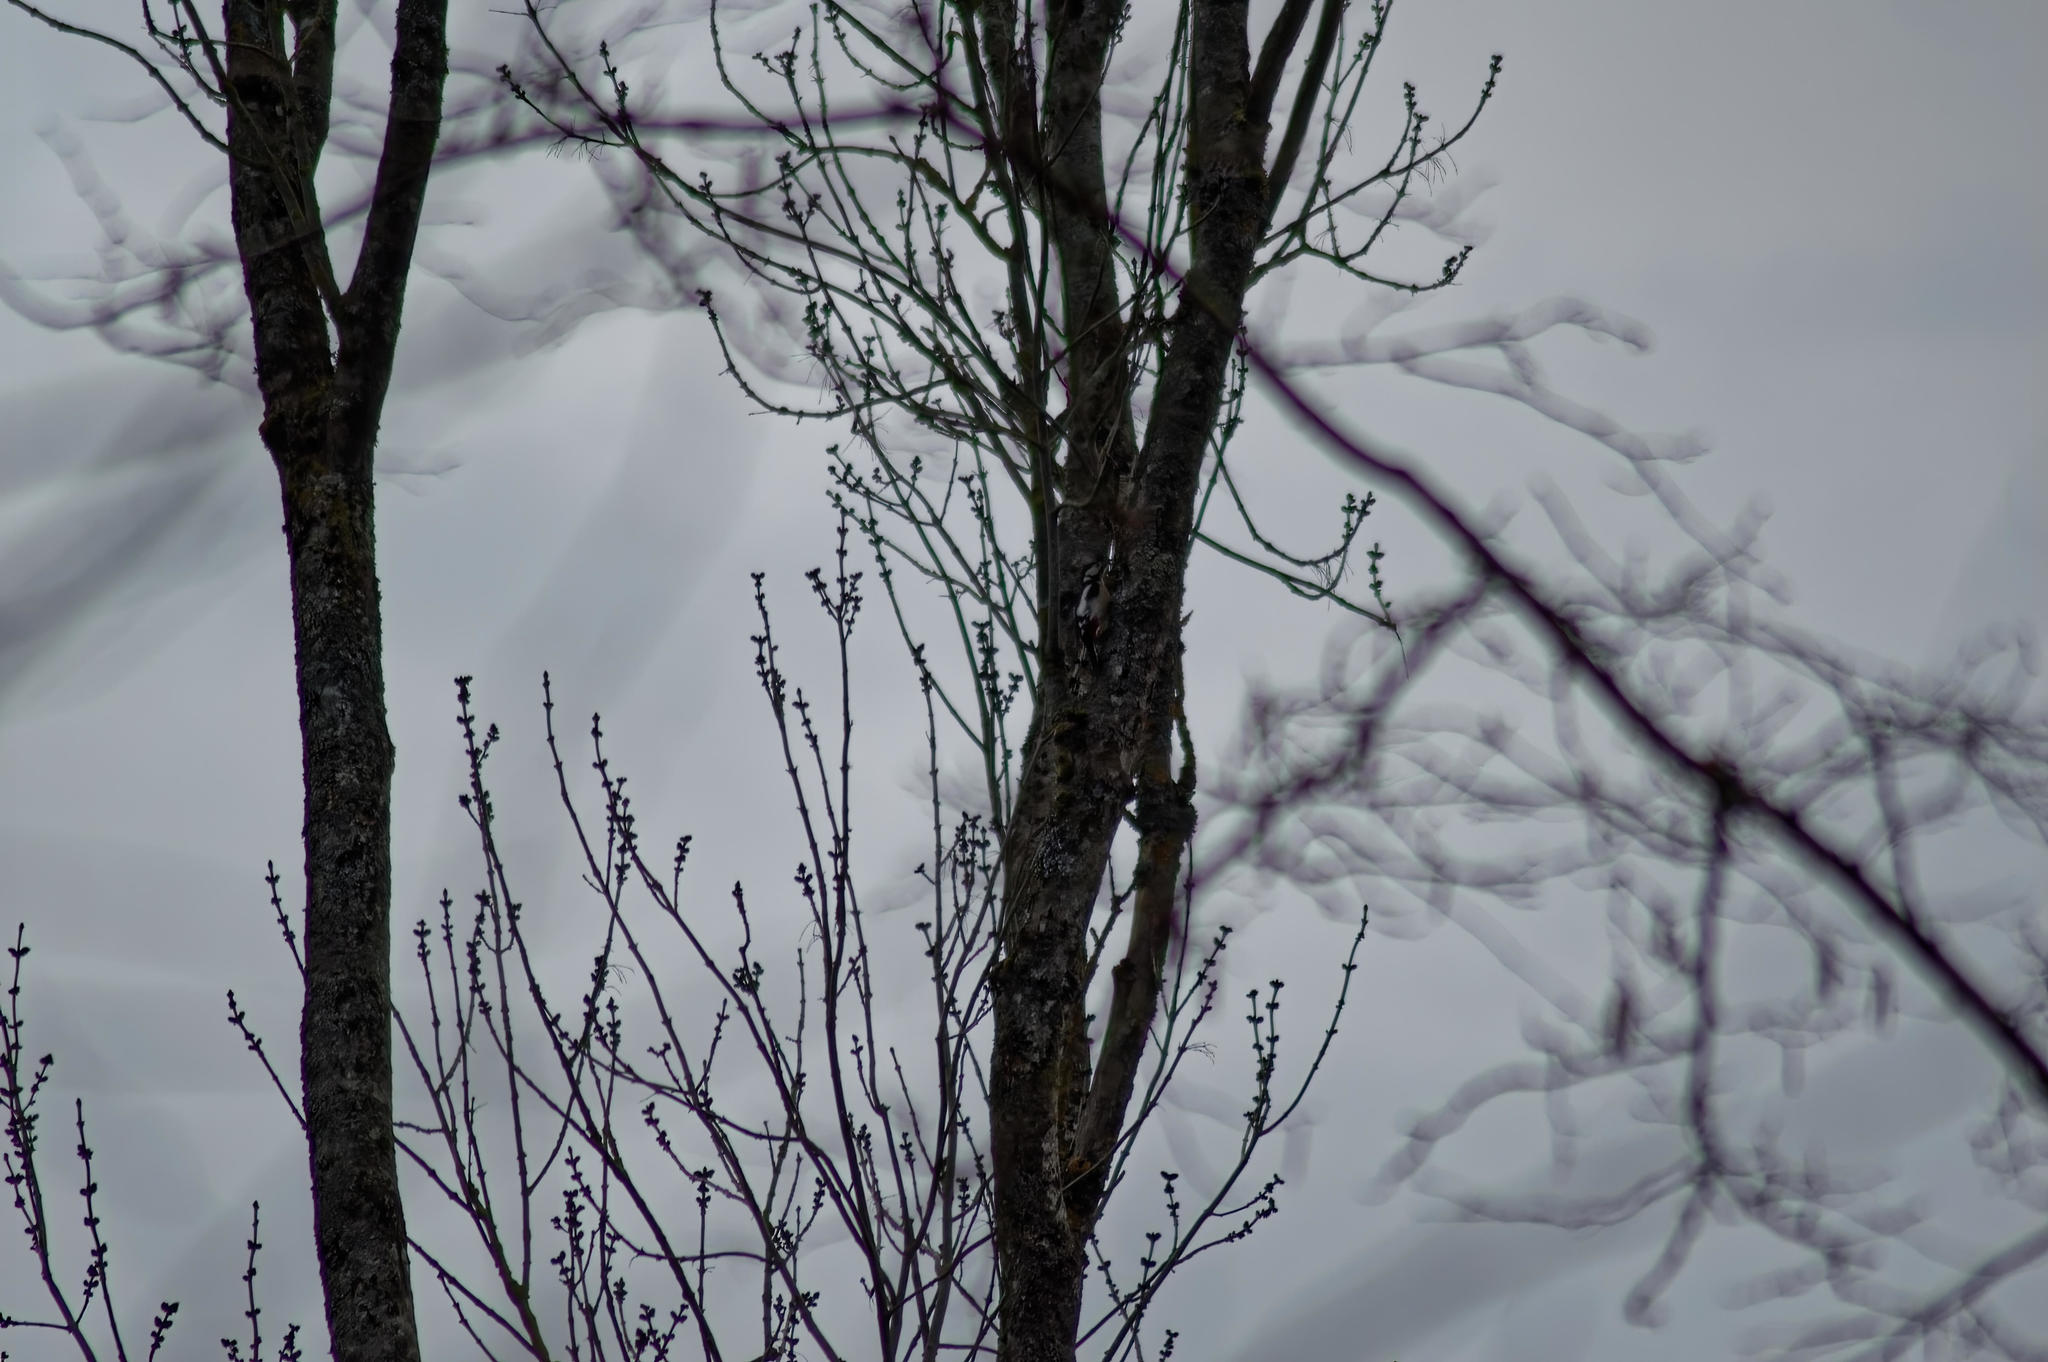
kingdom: Animalia
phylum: Chordata
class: Aves
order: Piciformes
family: Picidae
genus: Dendrocopos
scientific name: Dendrocopos major
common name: Great spotted woodpecker
